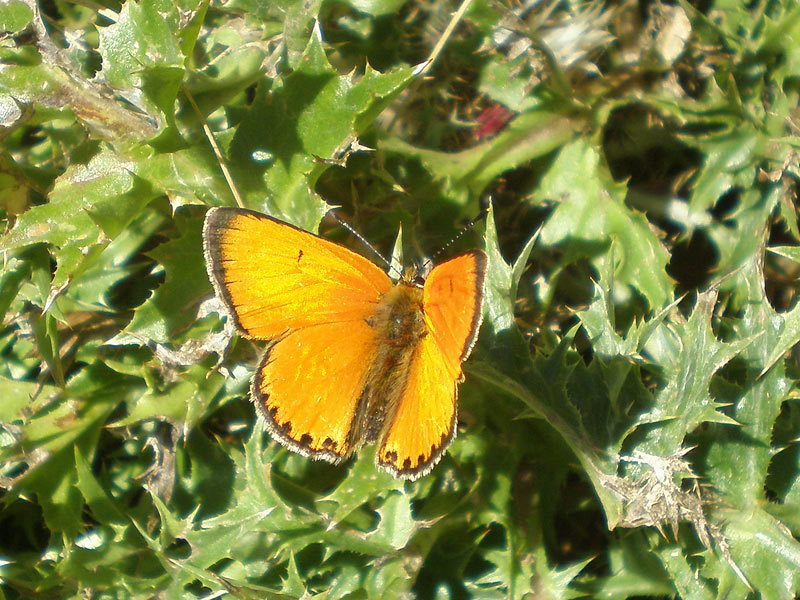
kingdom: Animalia
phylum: Arthropoda
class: Insecta
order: Lepidoptera
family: Lycaenidae
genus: Lycaena
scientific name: Lycaena virgaureae
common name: Scarce copper
